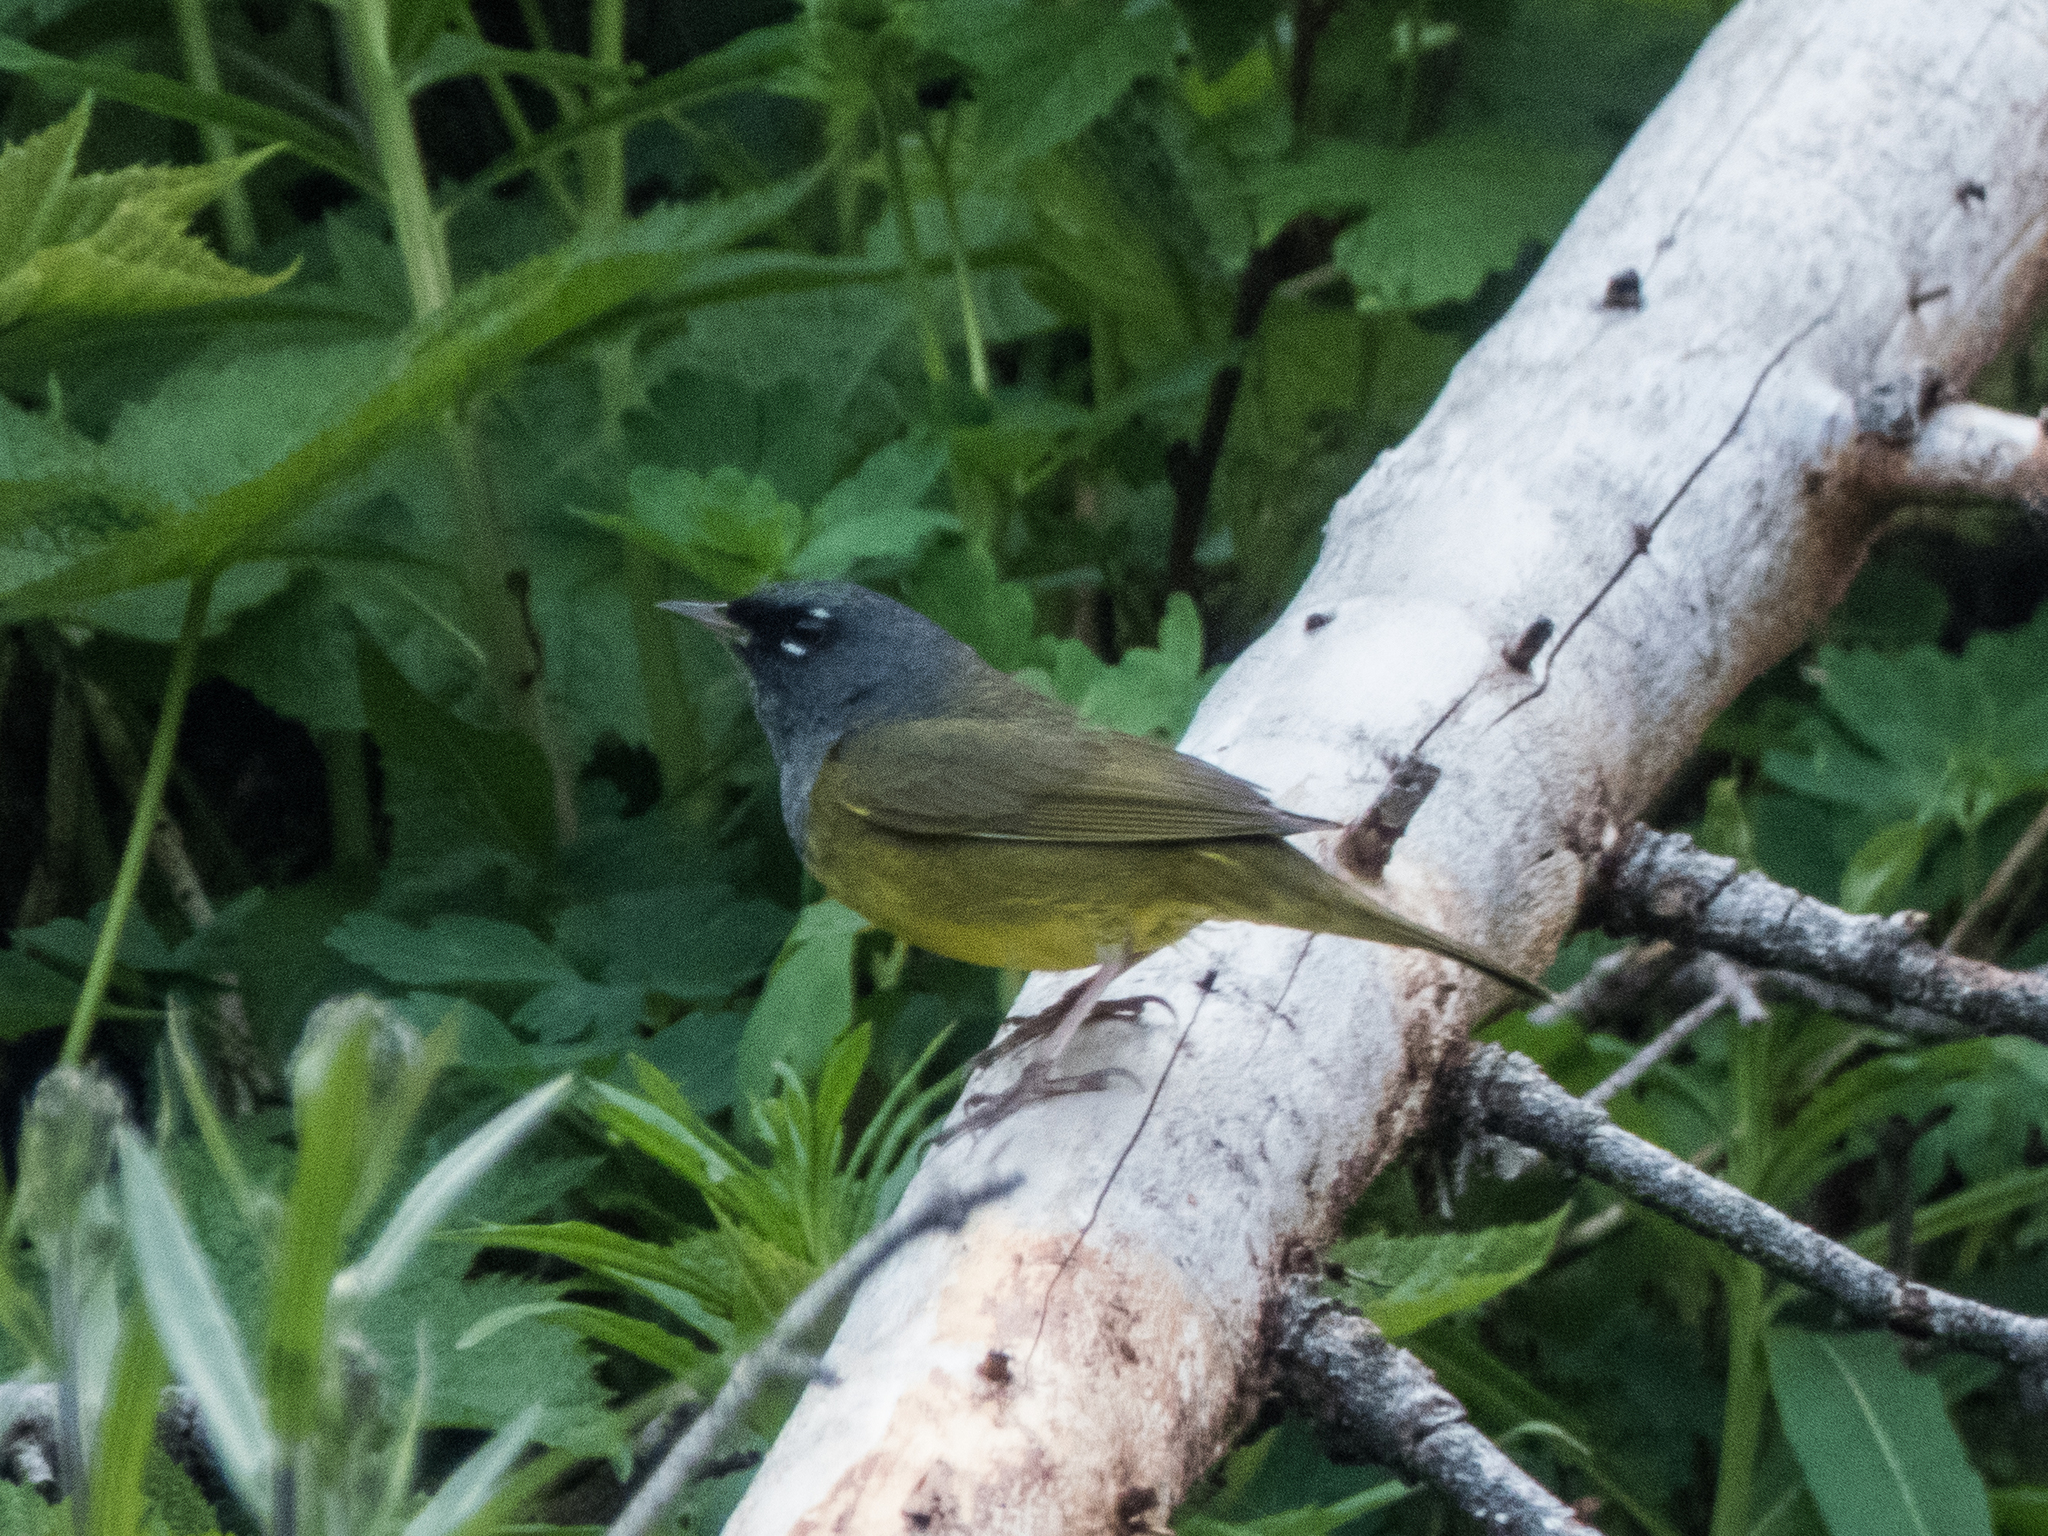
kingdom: Animalia
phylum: Chordata
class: Aves
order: Passeriformes
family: Parulidae
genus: Geothlypis
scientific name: Geothlypis tolmiei
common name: Macgillivray's warbler
